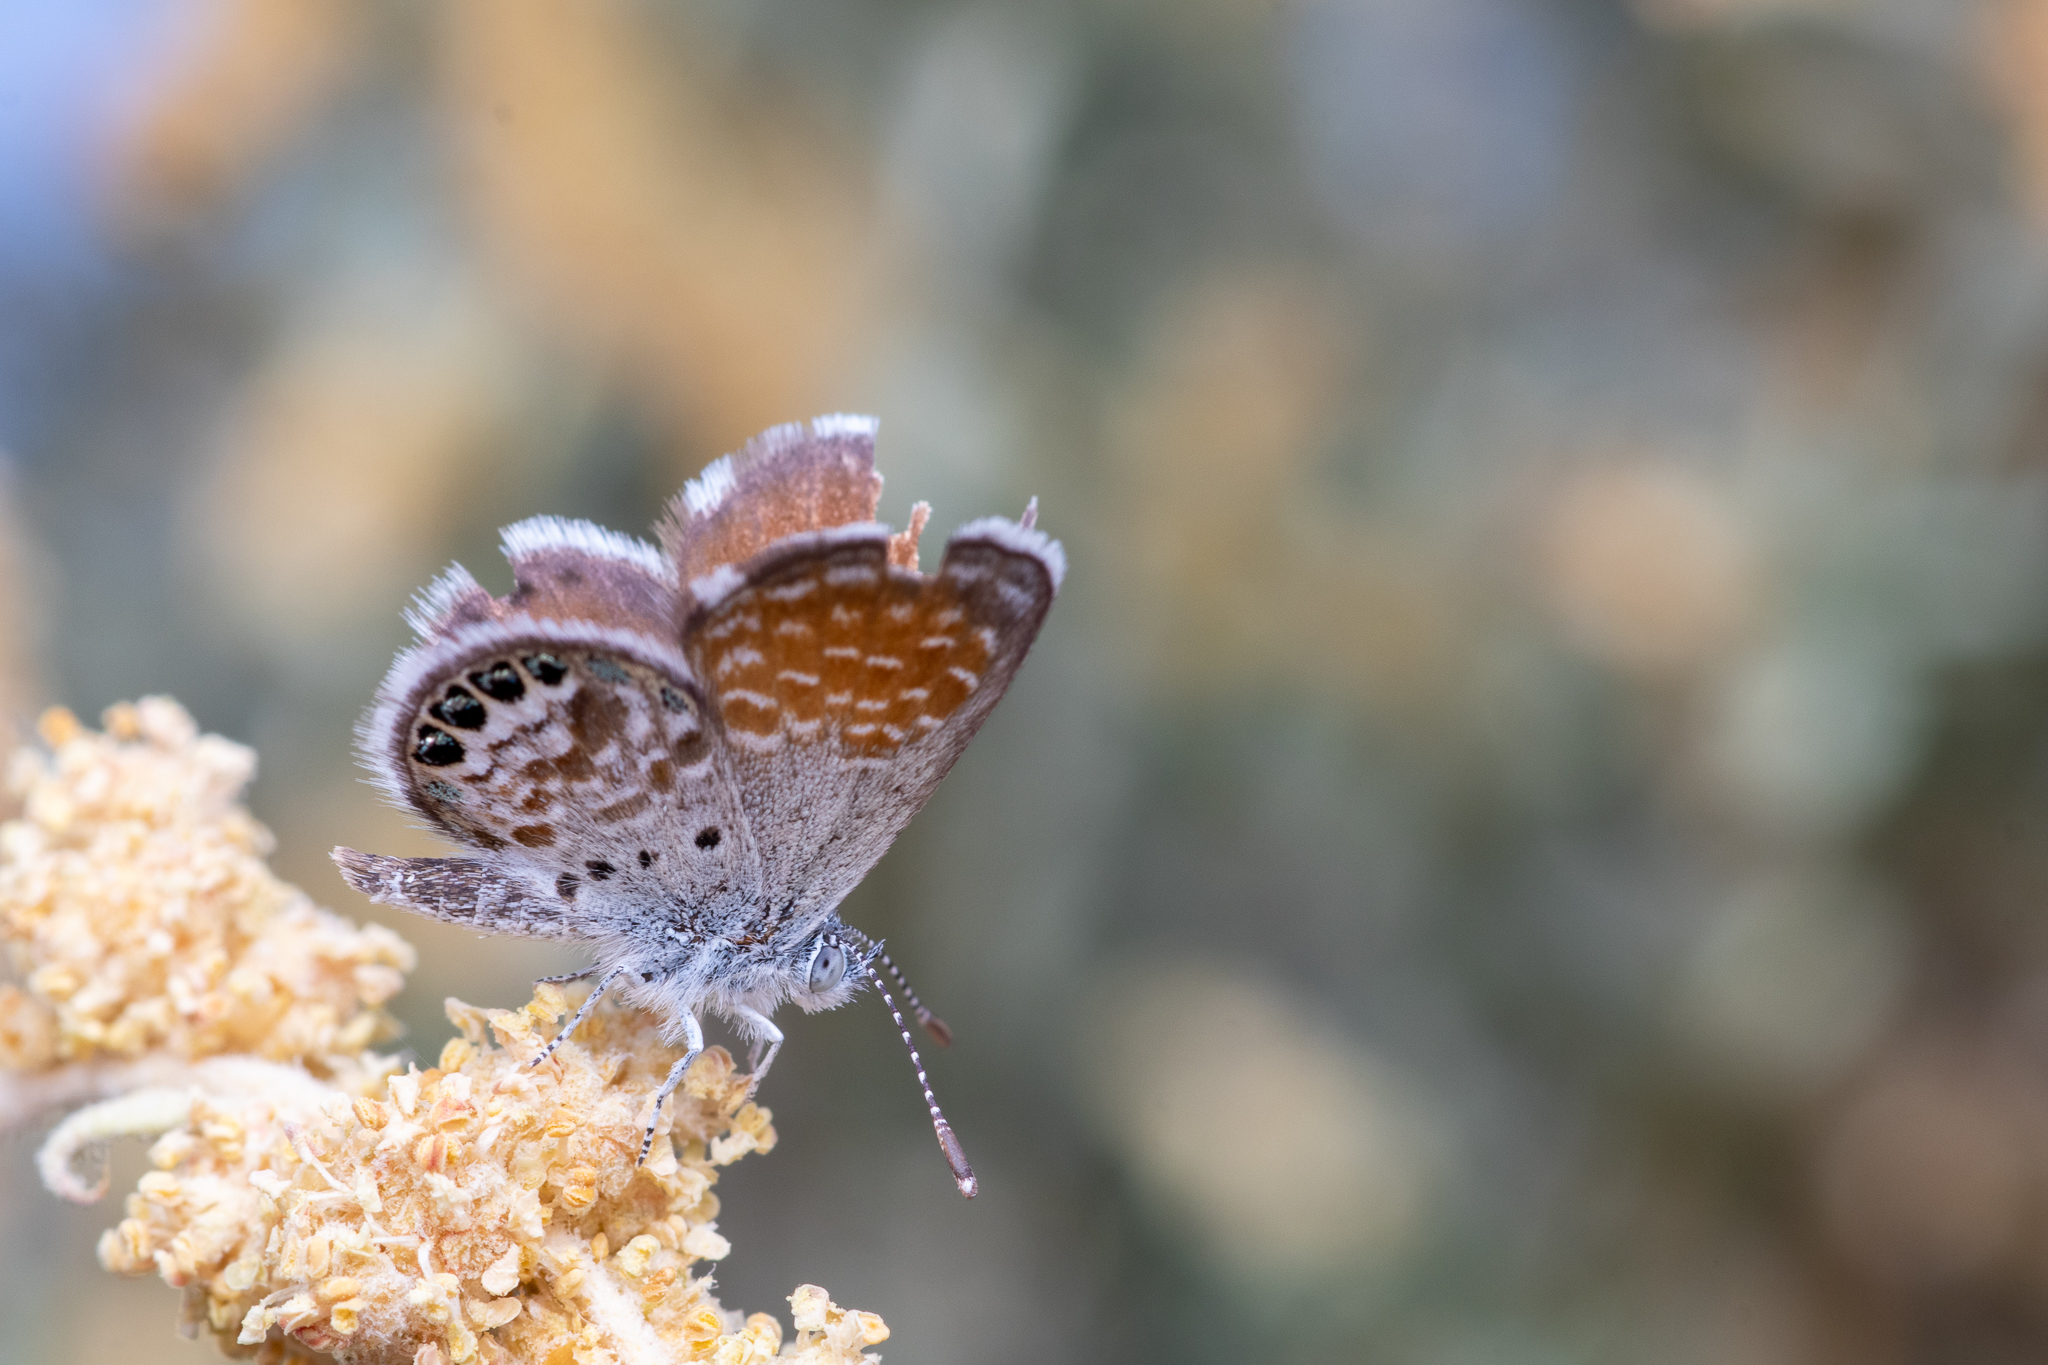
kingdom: Animalia
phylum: Arthropoda
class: Insecta
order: Lepidoptera
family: Lycaenidae
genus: Brephidium
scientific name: Brephidium exilis
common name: Pygmy blue
